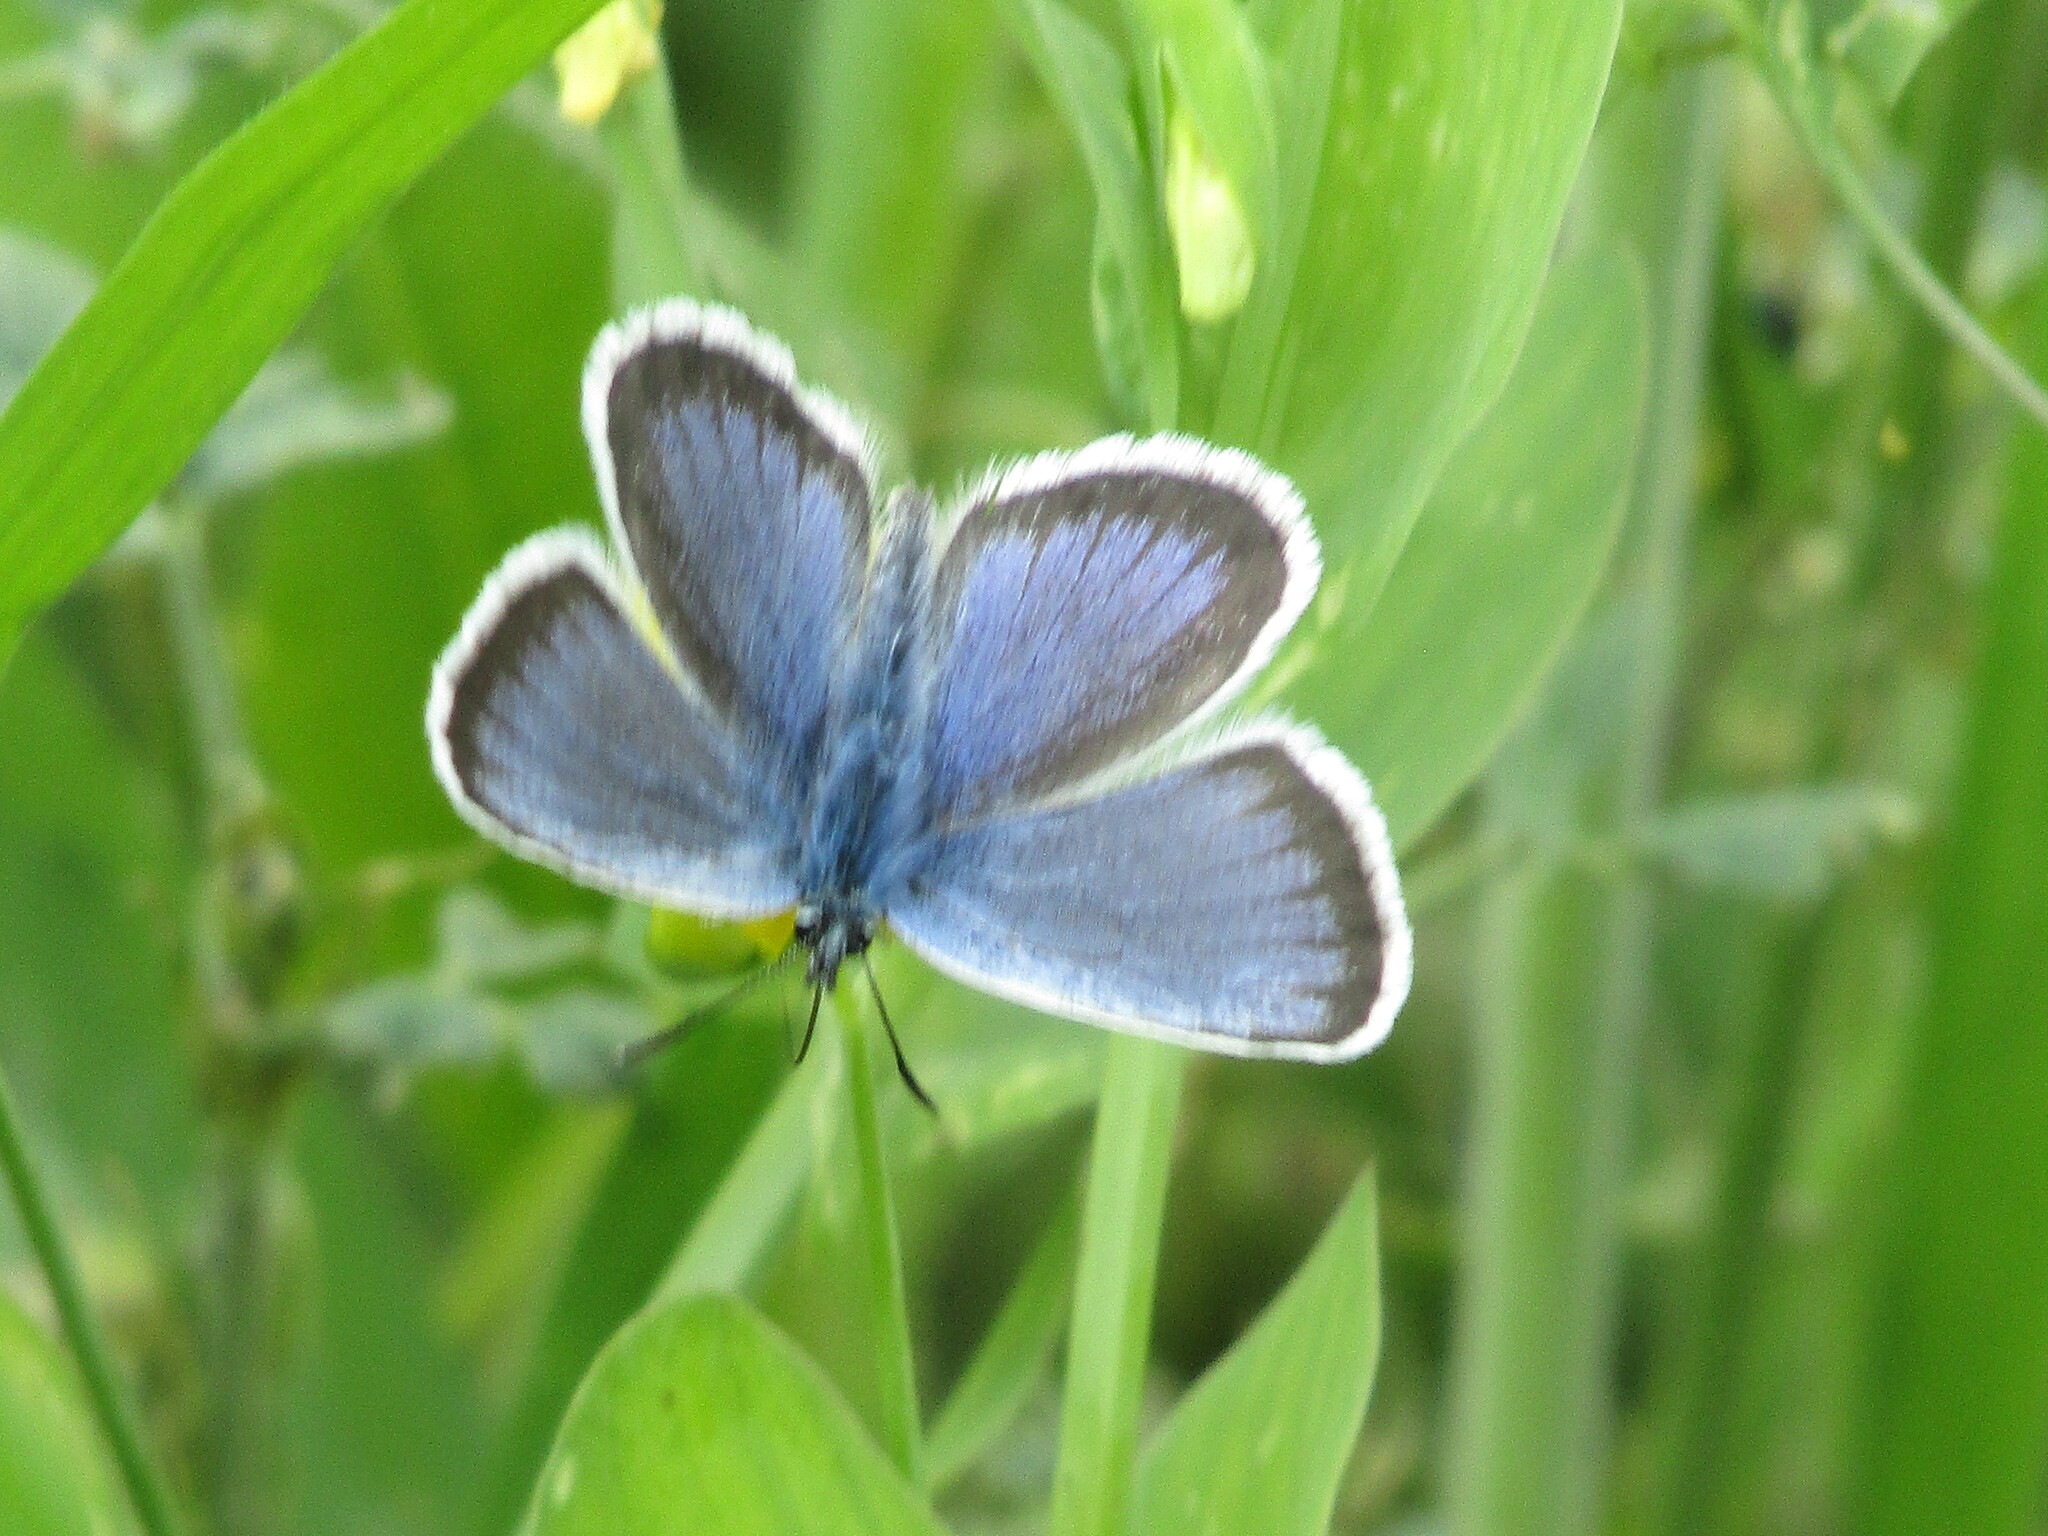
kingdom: Animalia
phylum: Arthropoda
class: Insecta
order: Lepidoptera
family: Lycaenidae
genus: Plebejus
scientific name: Plebejus argus
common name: Silver-studded blue
